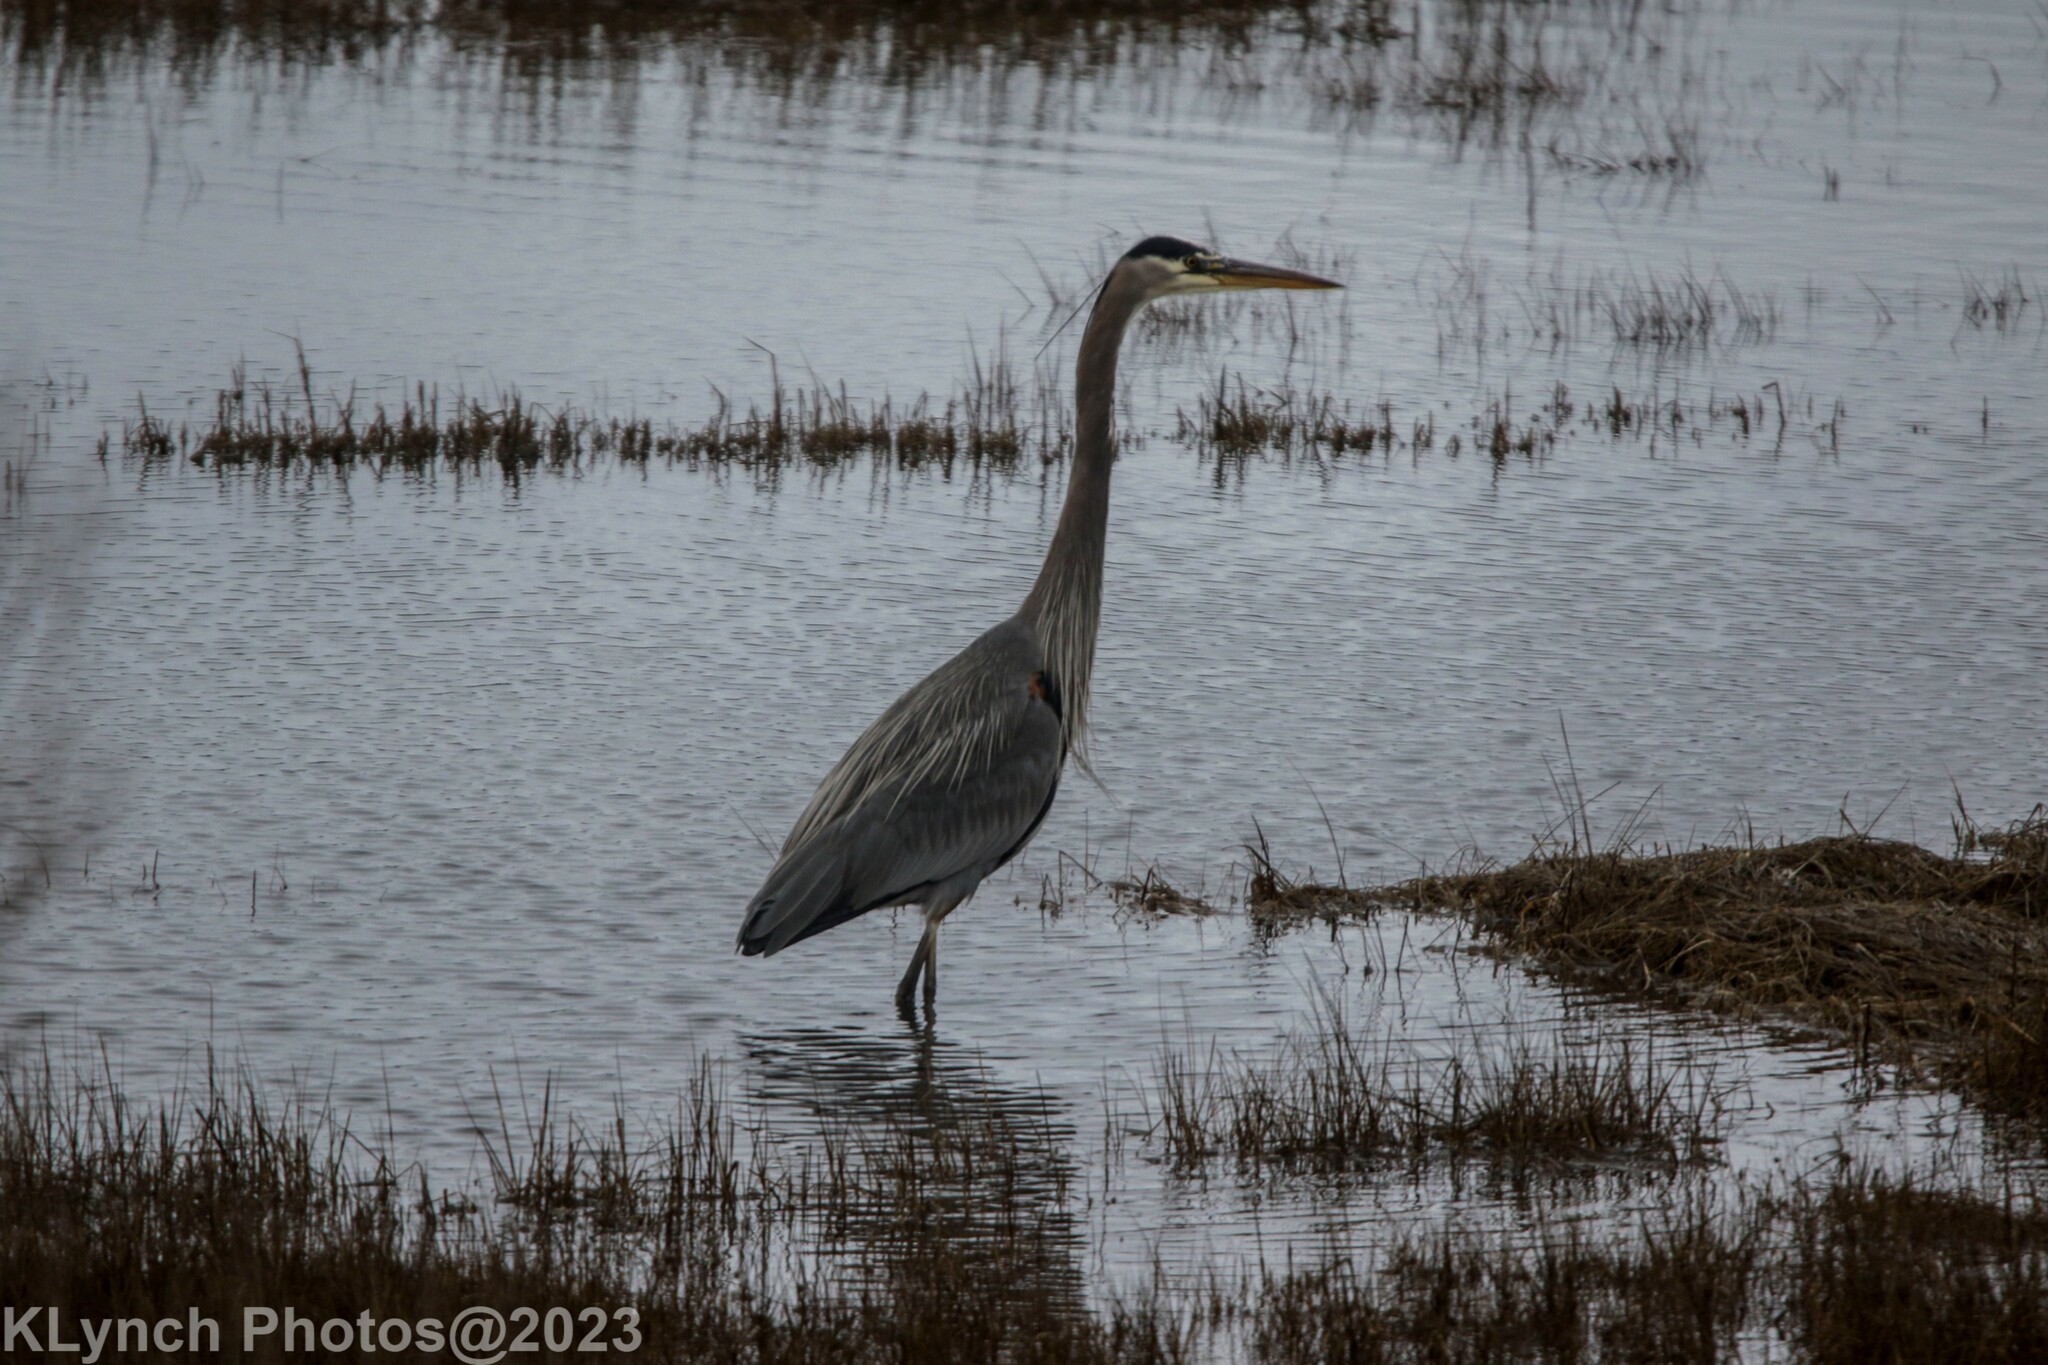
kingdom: Animalia
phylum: Chordata
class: Aves
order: Pelecaniformes
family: Ardeidae
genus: Ardea
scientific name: Ardea herodias
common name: Great blue heron
